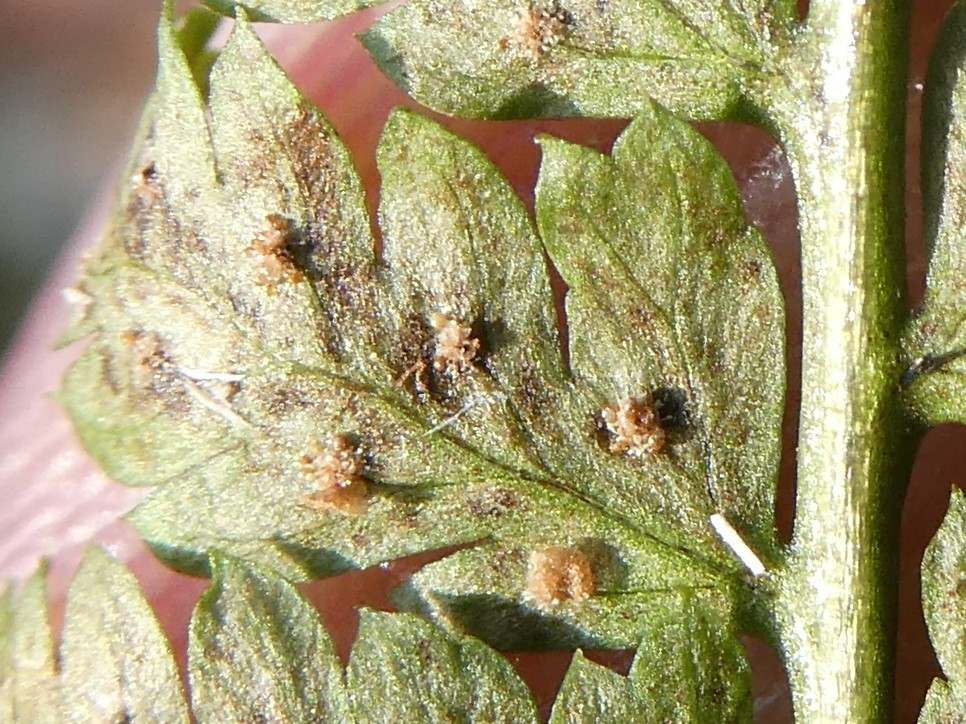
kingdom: Plantae
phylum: Tracheophyta
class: Polypodiopsida
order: Polypodiales
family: Dryopteridaceae
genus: Dryopteris
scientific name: Dryopteris intermedia
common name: Evergreen wood fern
